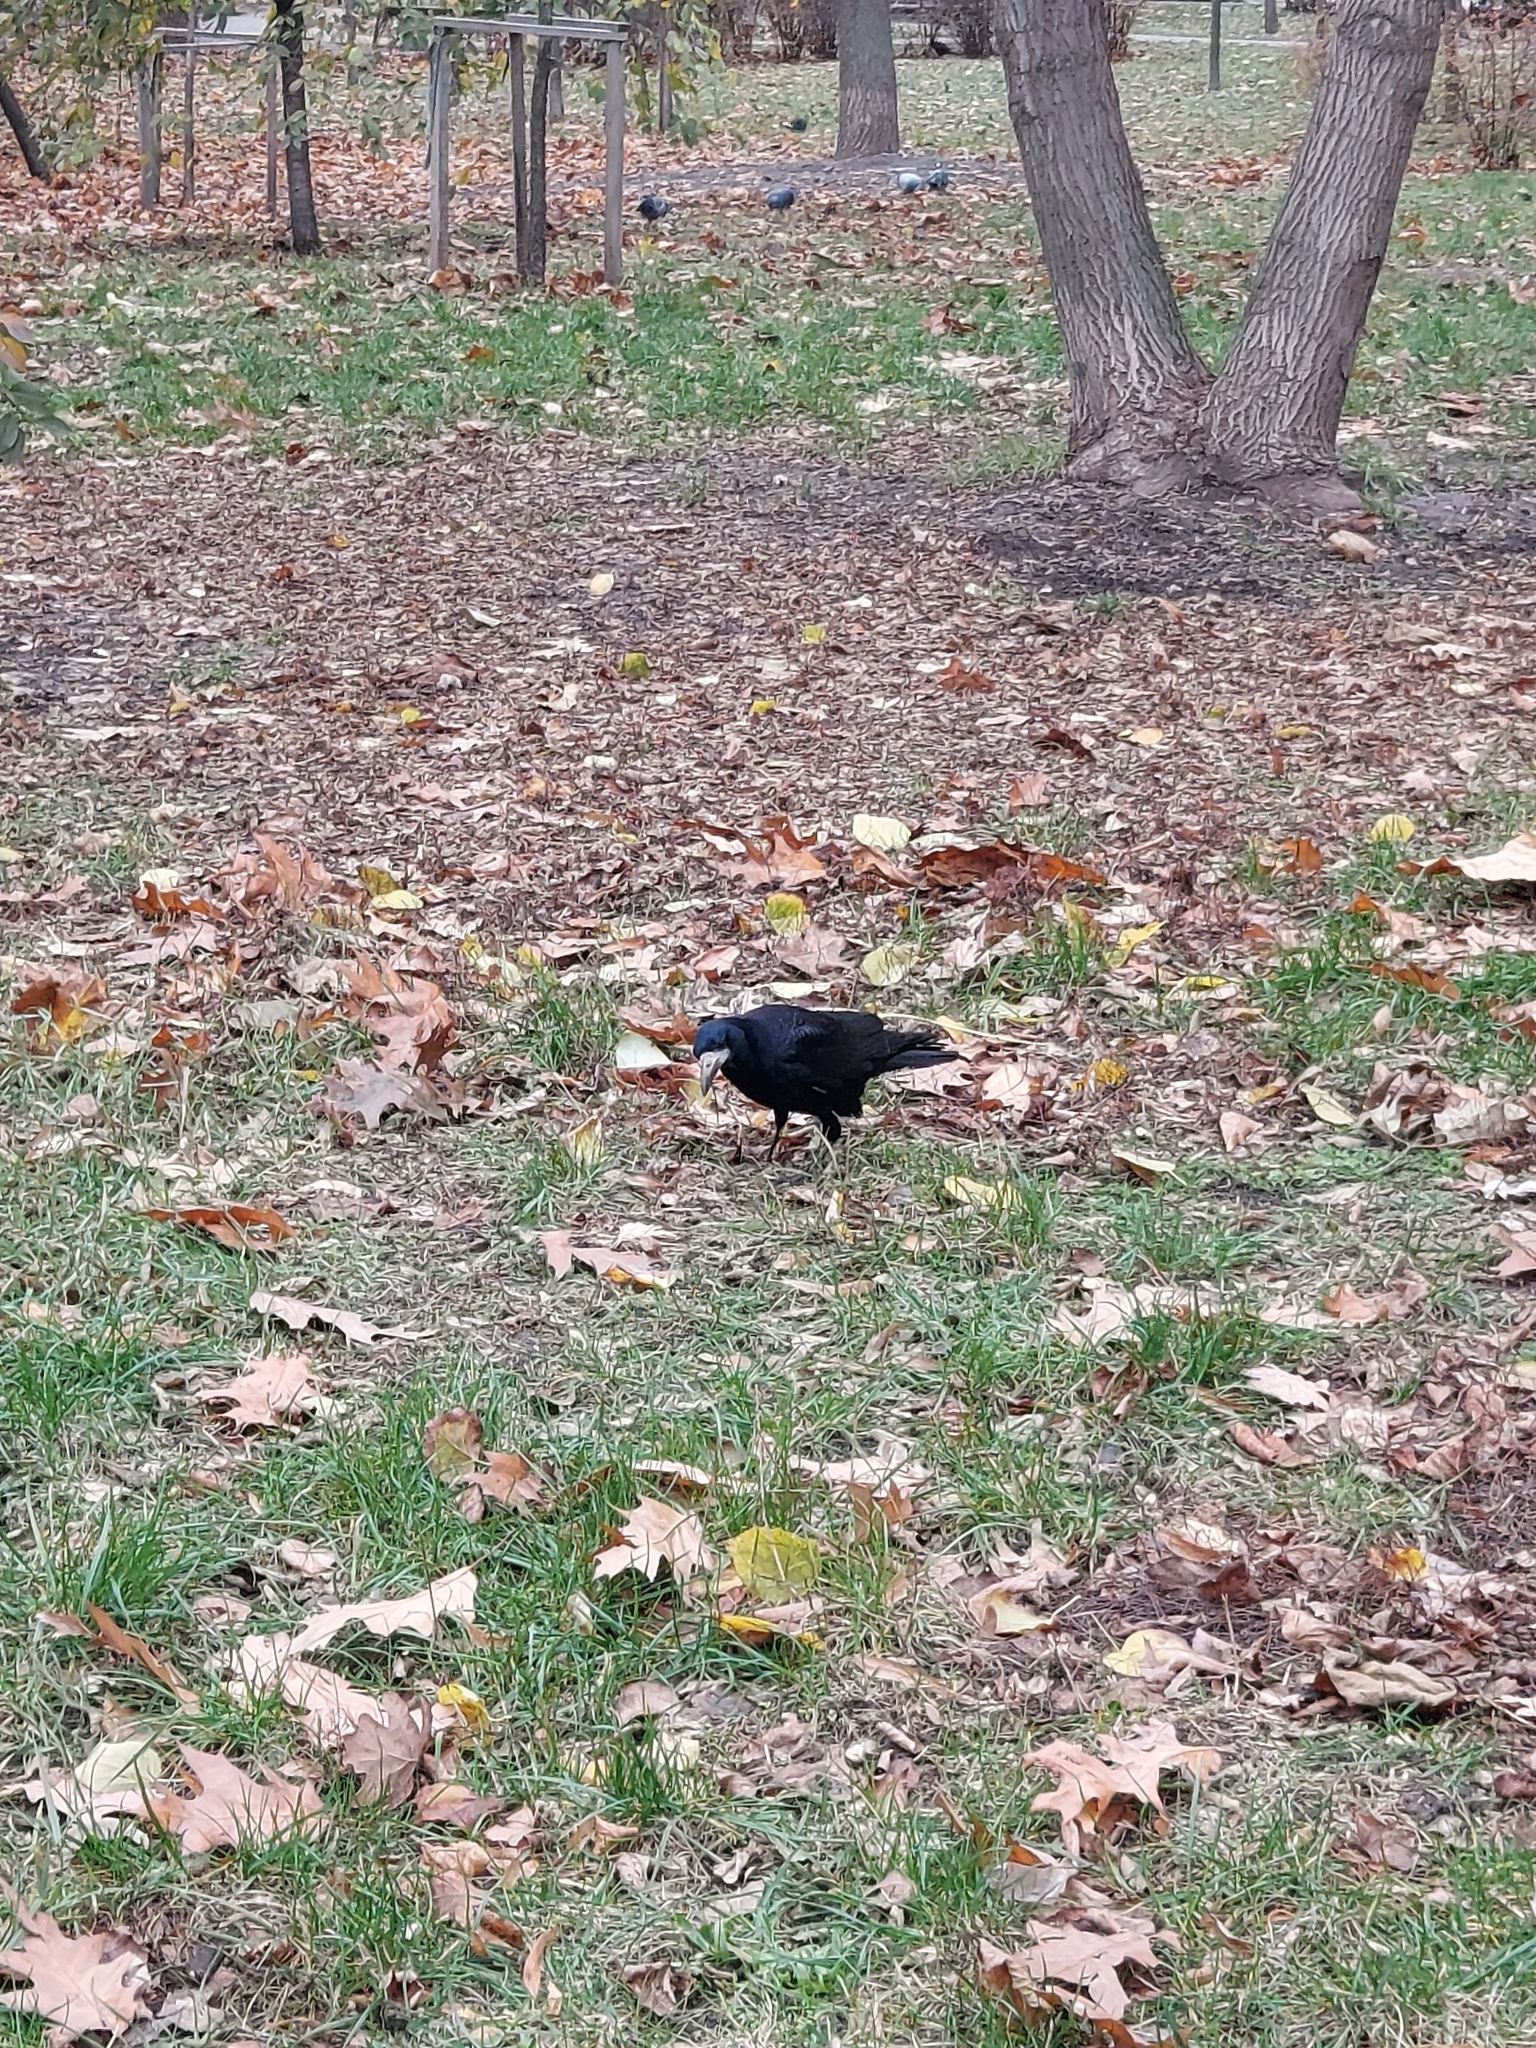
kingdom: Animalia
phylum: Chordata
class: Aves
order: Passeriformes
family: Corvidae
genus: Corvus
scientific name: Corvus frugilegus
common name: Rook
